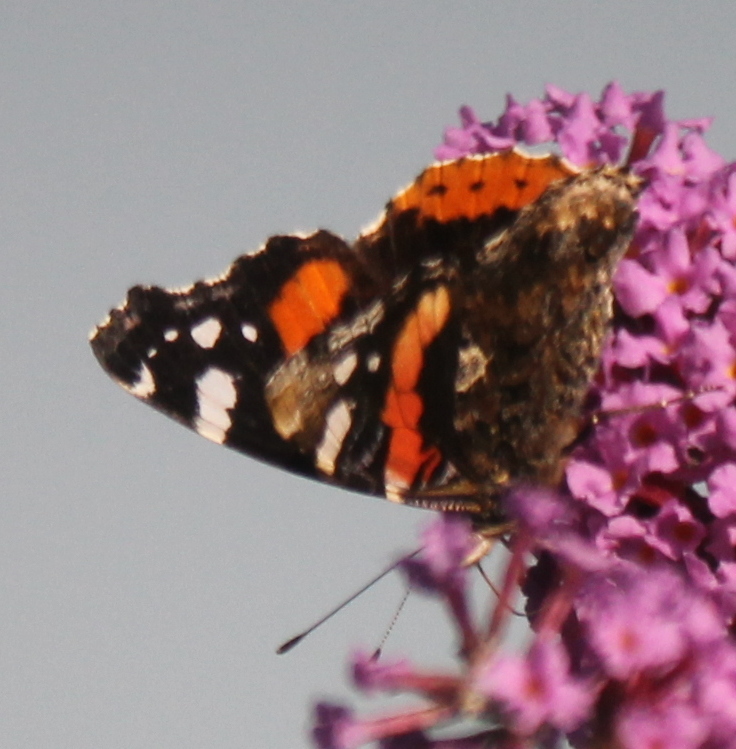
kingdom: Animalia
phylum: Arthropoda
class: Insecta
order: Lepidoptera
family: Nymphalidae
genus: Vanessa
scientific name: Vanessa atalanta
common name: Red admiral
